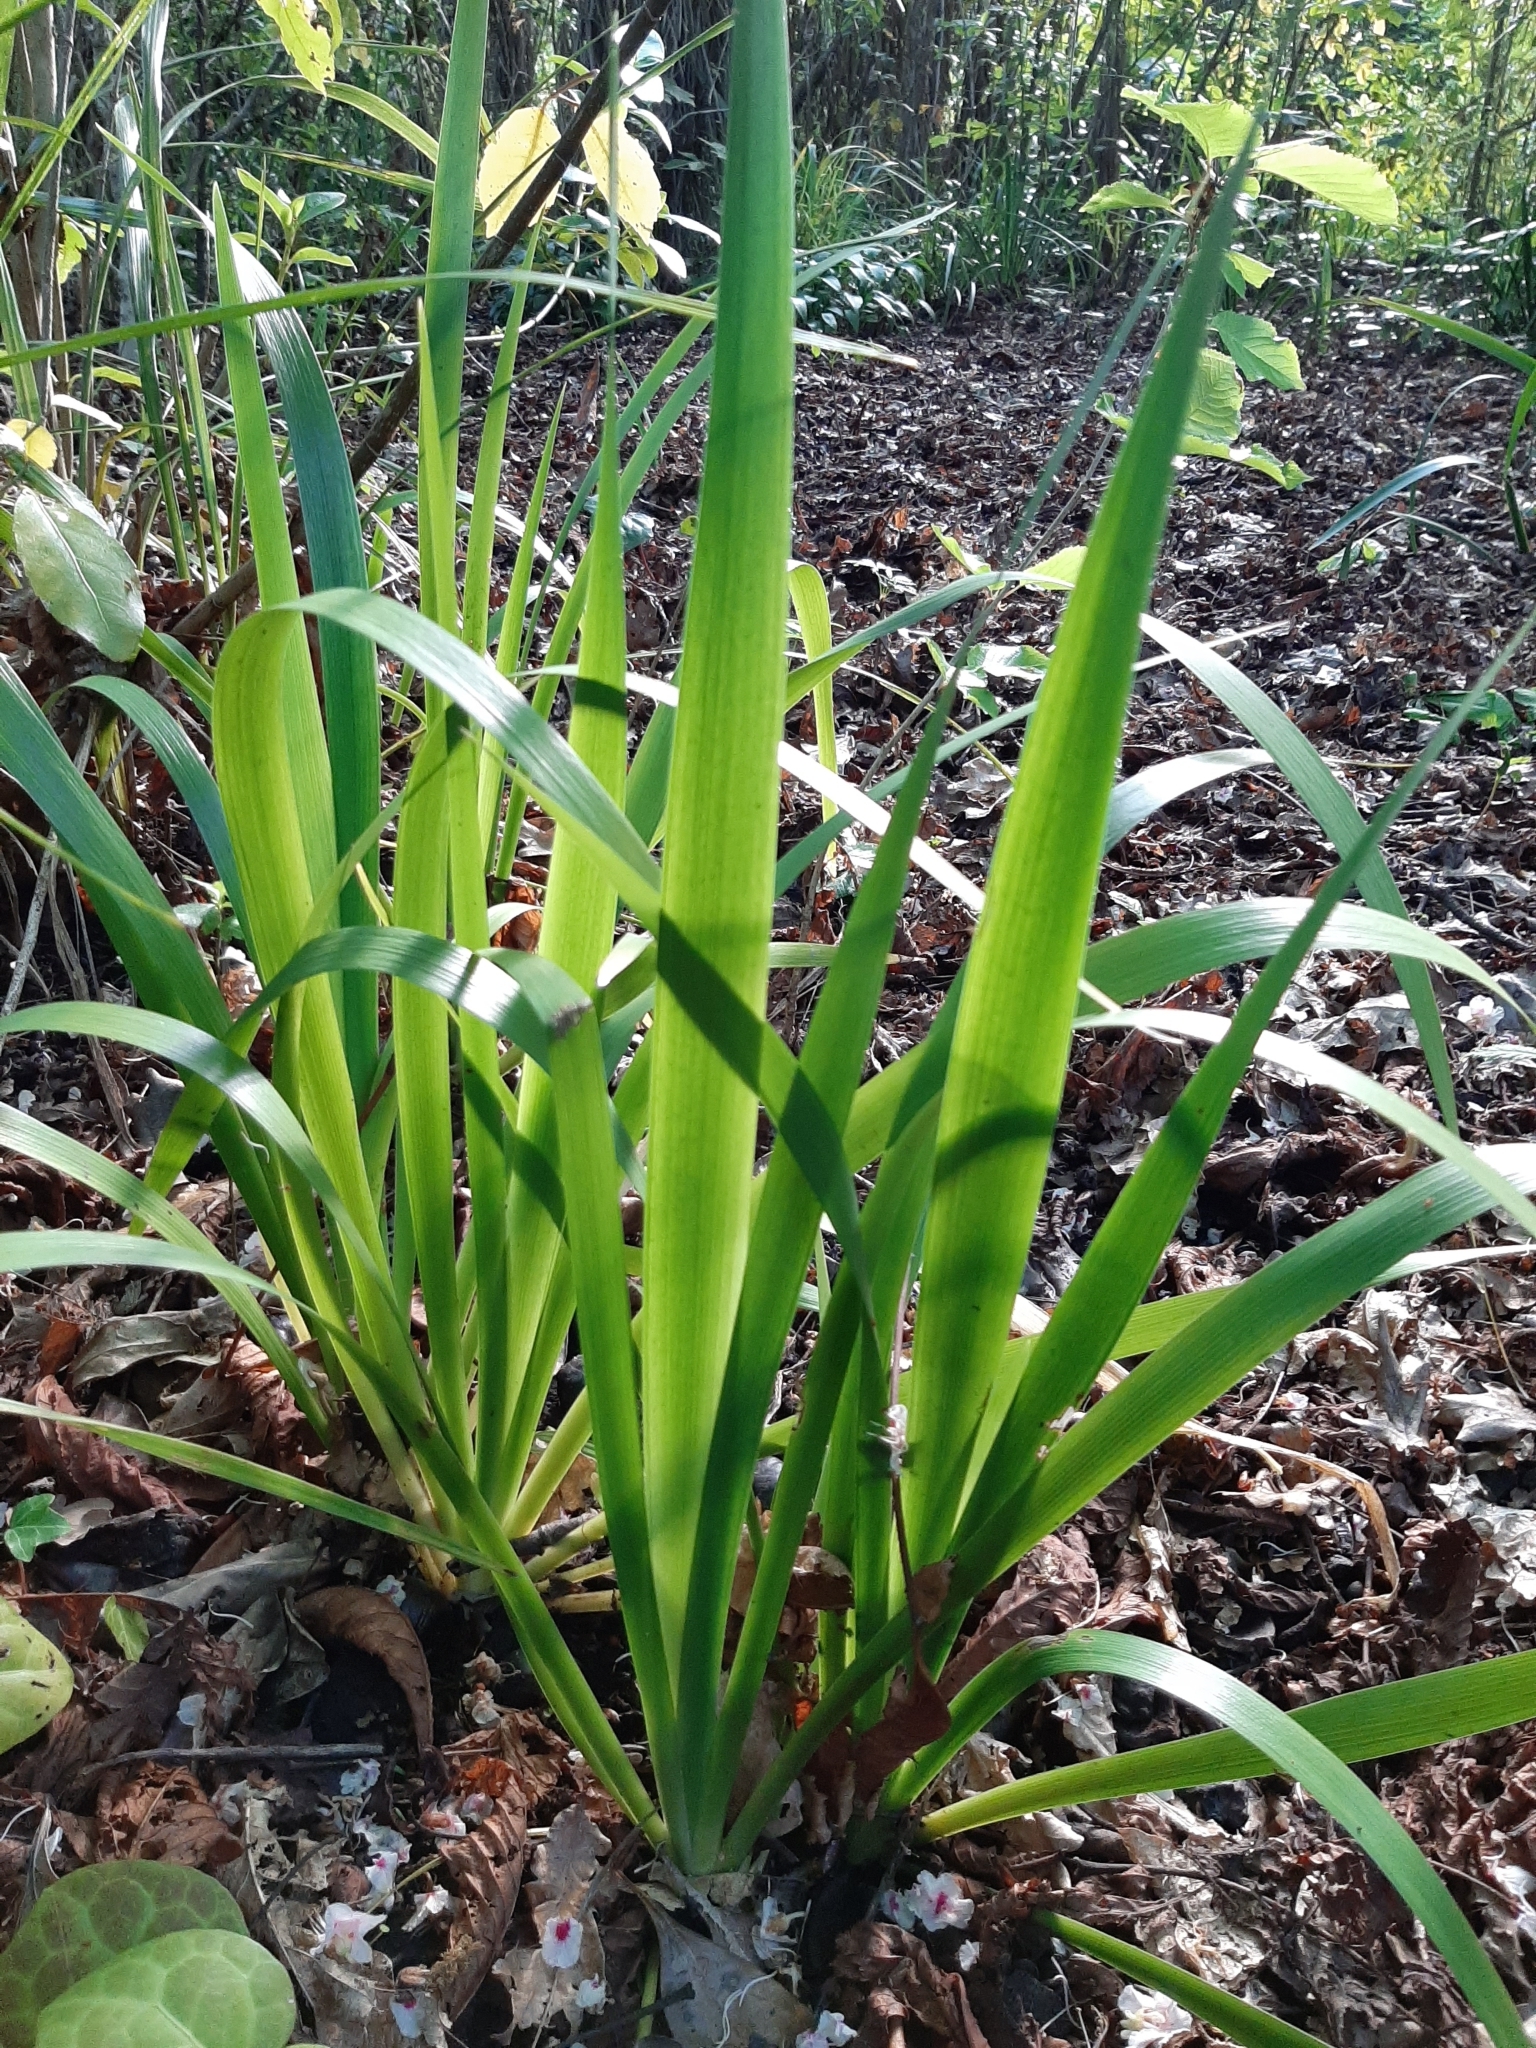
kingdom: Plantae
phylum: Tracheophyta
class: Liliopsida
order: Asparagales
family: Iridaceae
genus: Iris
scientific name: Iris foetidissima
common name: Stinking iris
